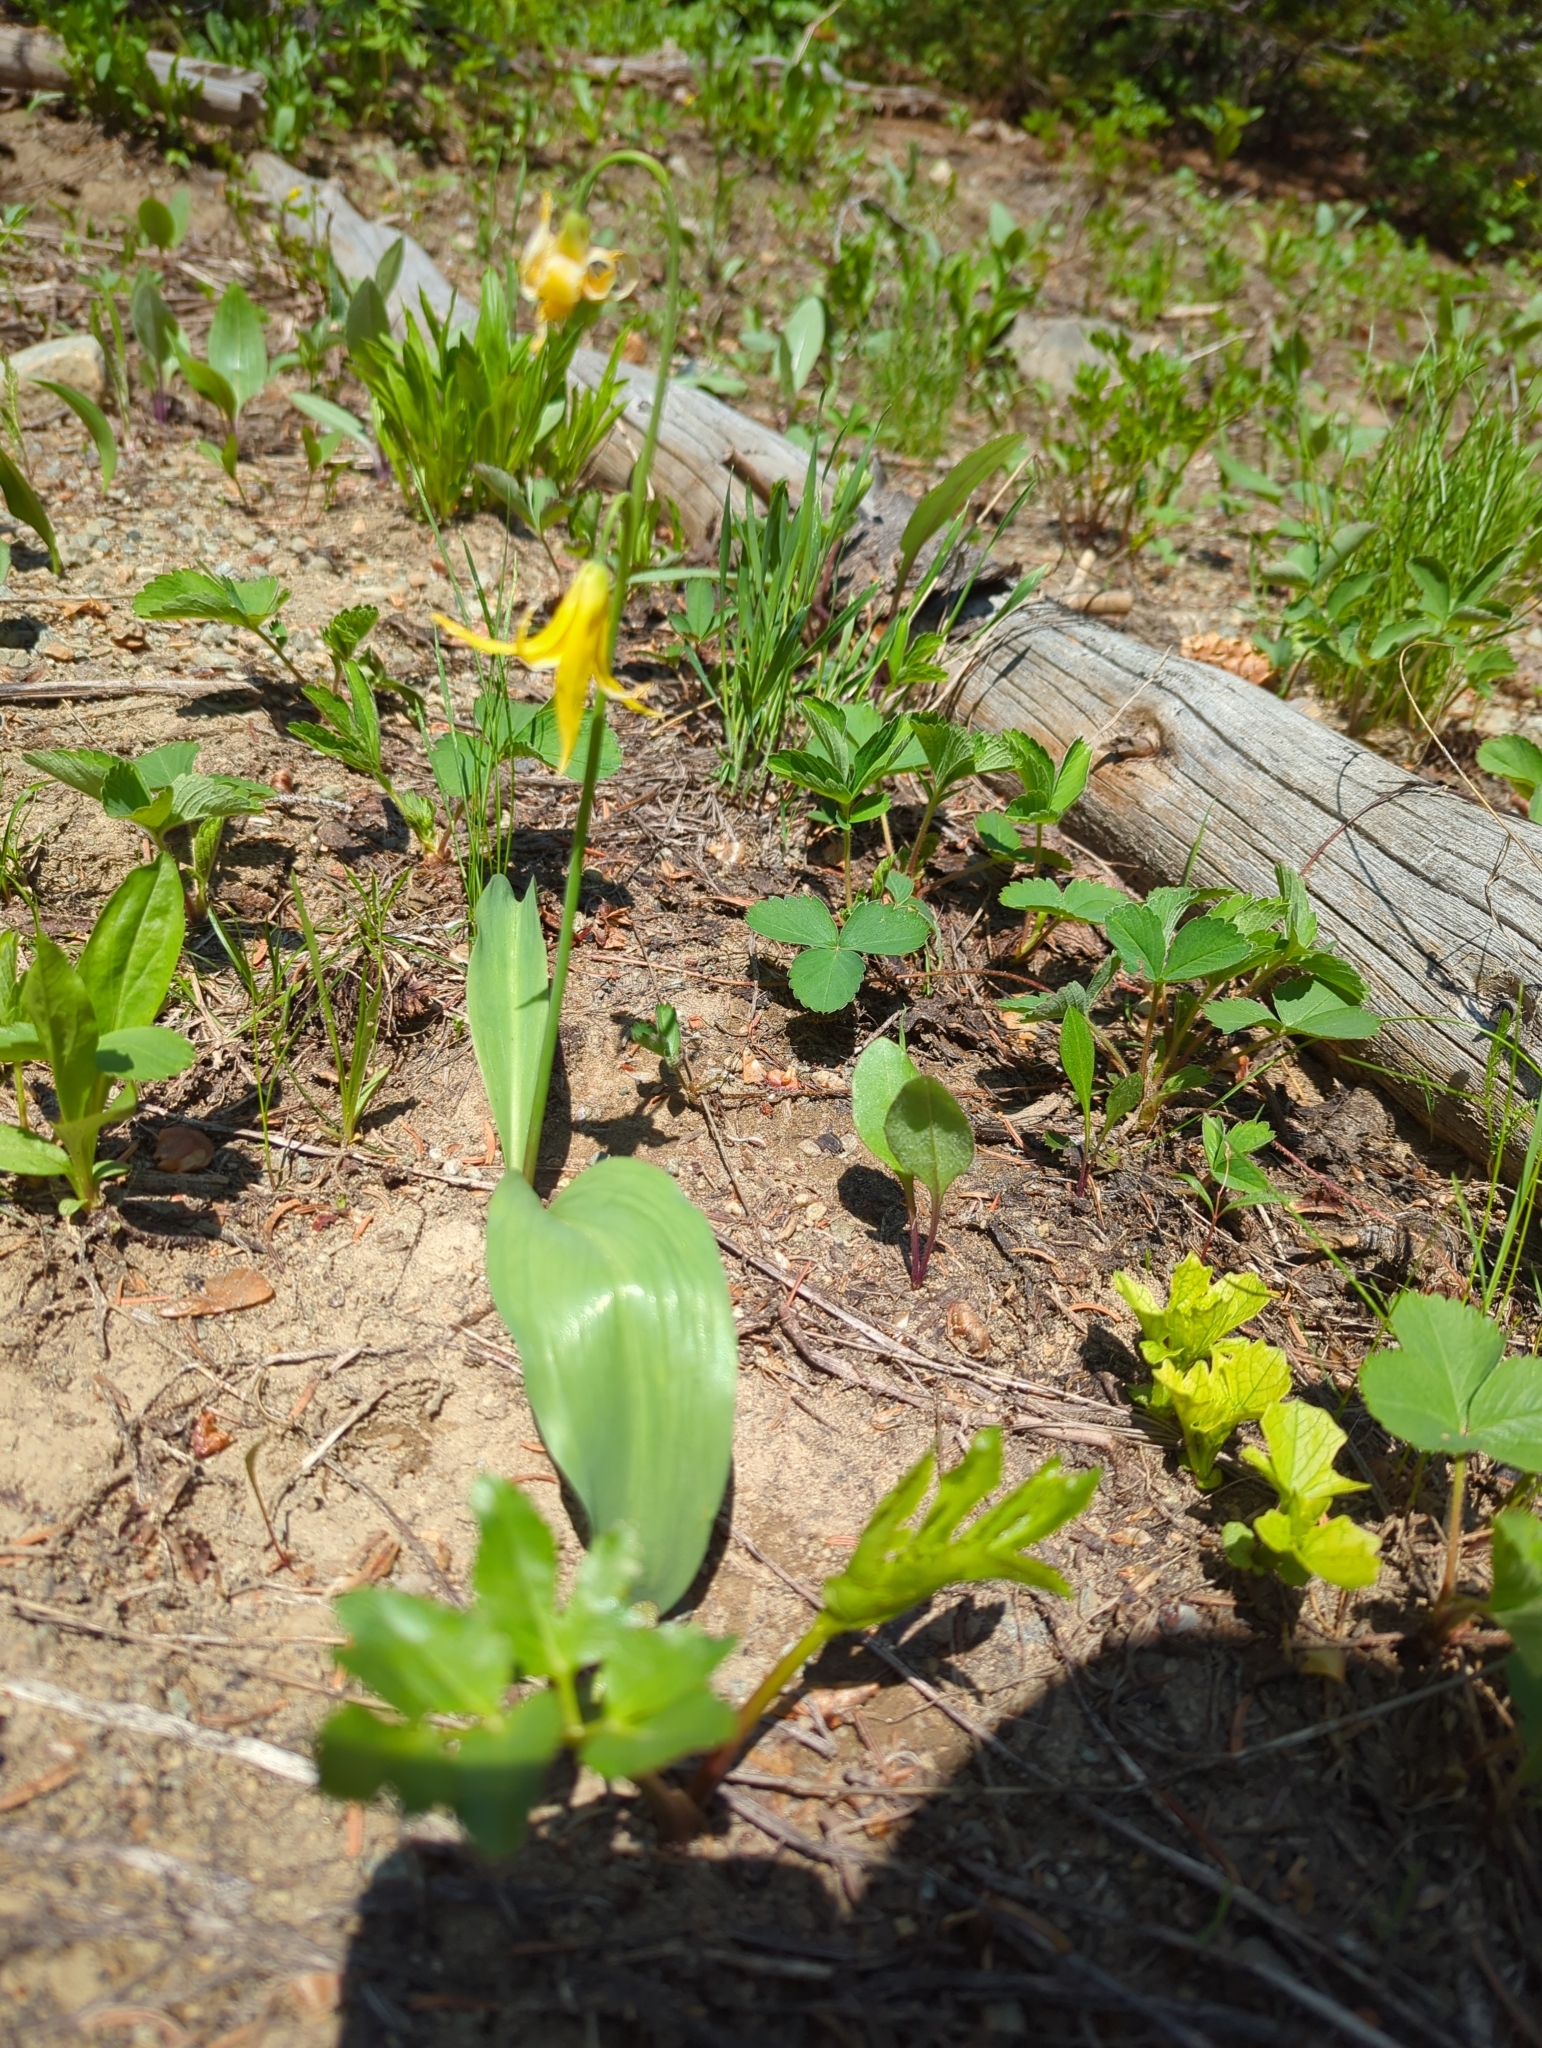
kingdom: Plantae
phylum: Tracheophyta
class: Liliopsida
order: Liliales
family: Liliaceae
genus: Erythronium
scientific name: Erythronium grandiflorum
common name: Avalanche-lily
